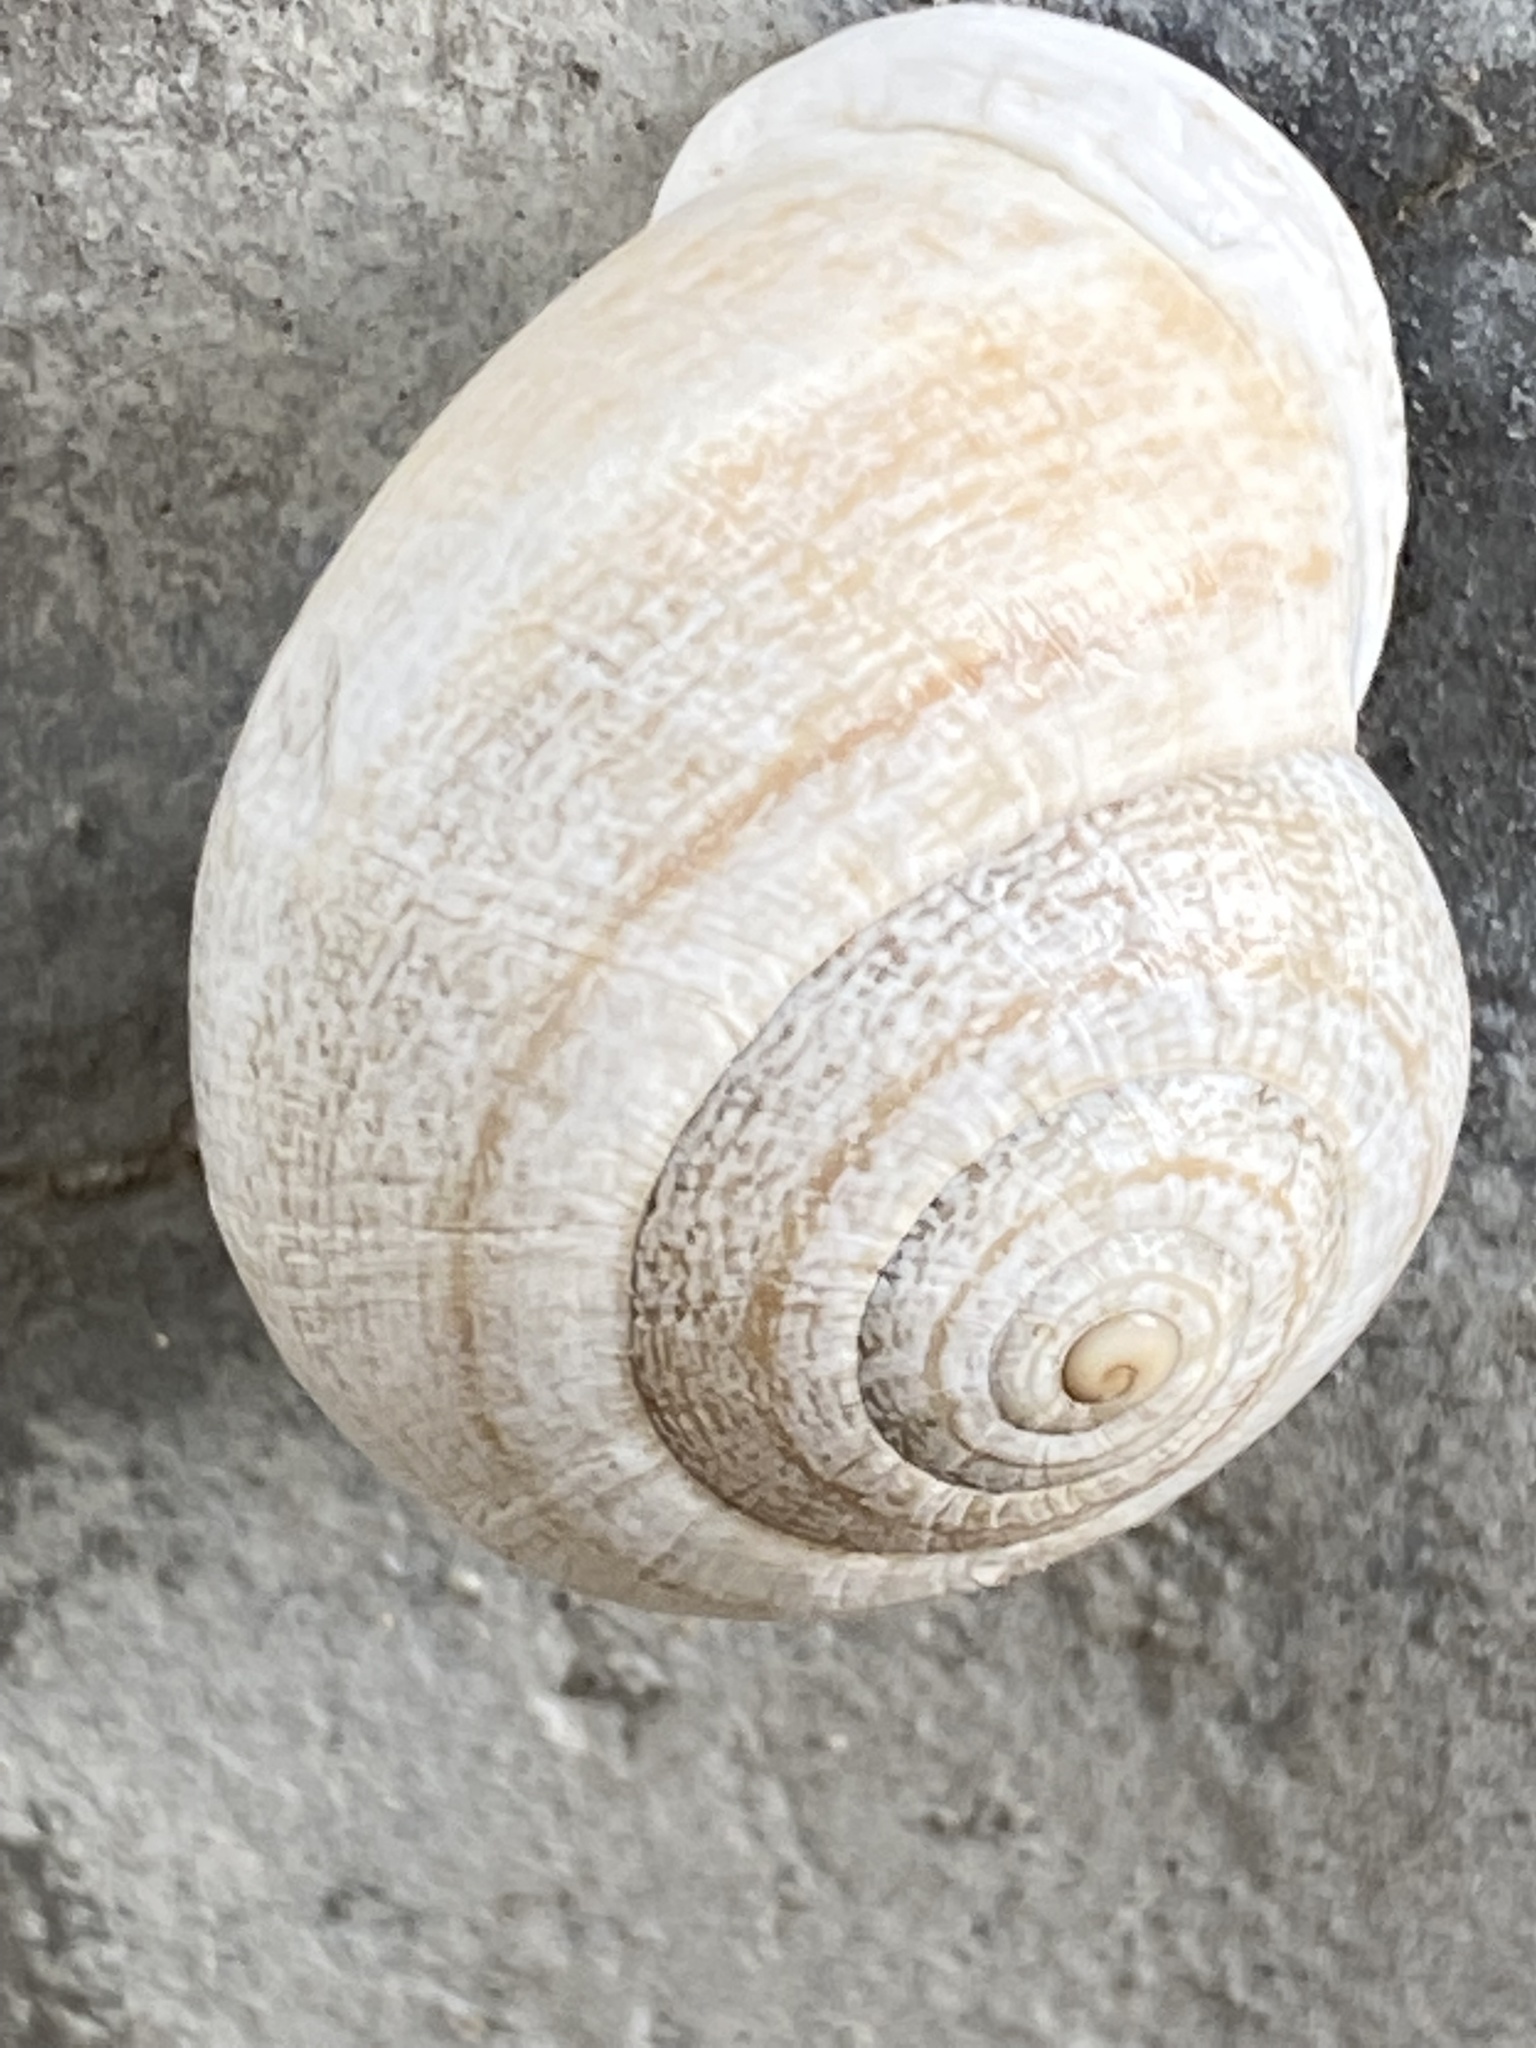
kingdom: Animalia
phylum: Mollusca
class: Gastropoda
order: Stylommatophora
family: Helicidae
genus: Otala
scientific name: Otala lactea
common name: Milk snail
